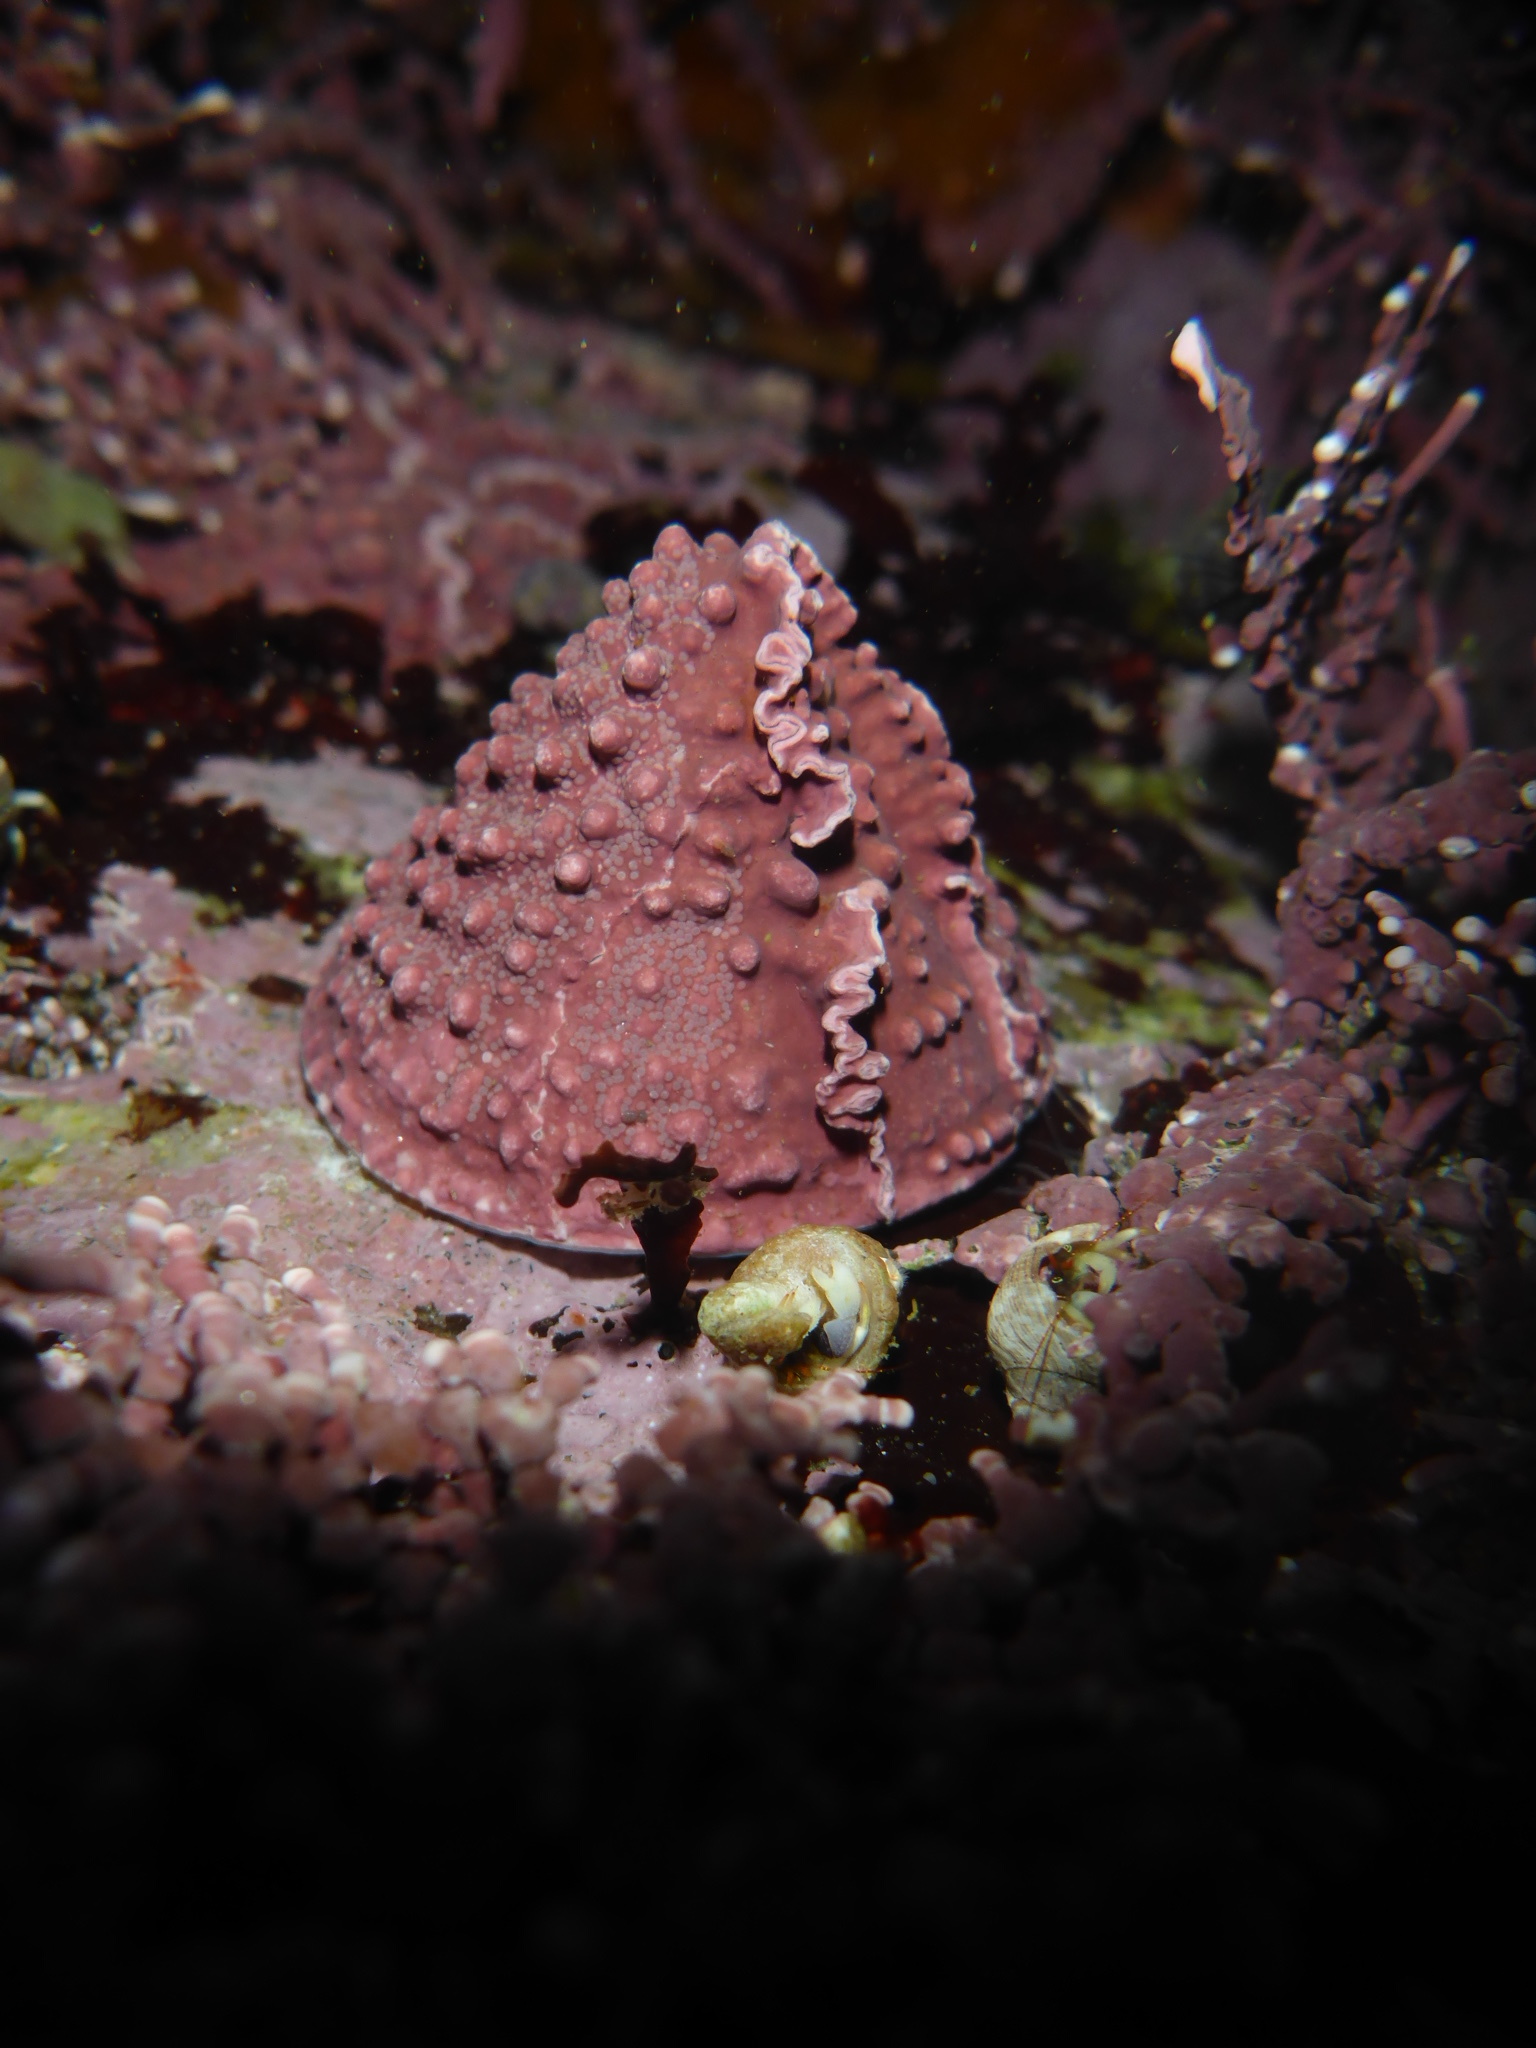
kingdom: Animalia
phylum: Mollusca
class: Gastropoda
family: Acmaeidae
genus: Acmaea
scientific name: Acmaea mitra
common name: Pacific white cap limpet
